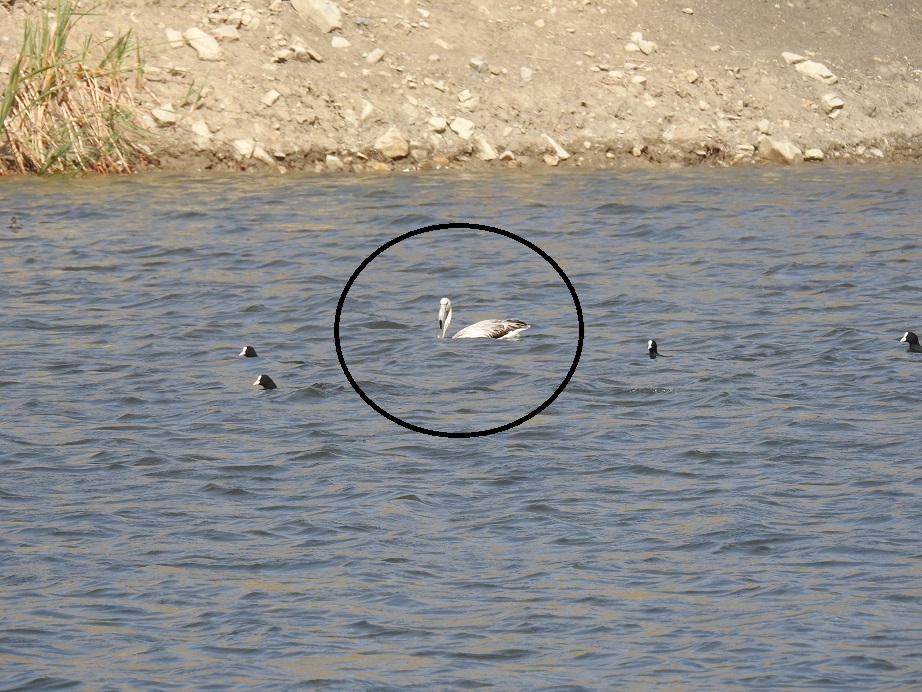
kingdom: Animalia
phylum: Chordata
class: Aves
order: Phoenicopteriformes
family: Phoenicopteridae
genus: Phoenicopterus
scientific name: Phoenicopterus roseus
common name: Greater flamingo
